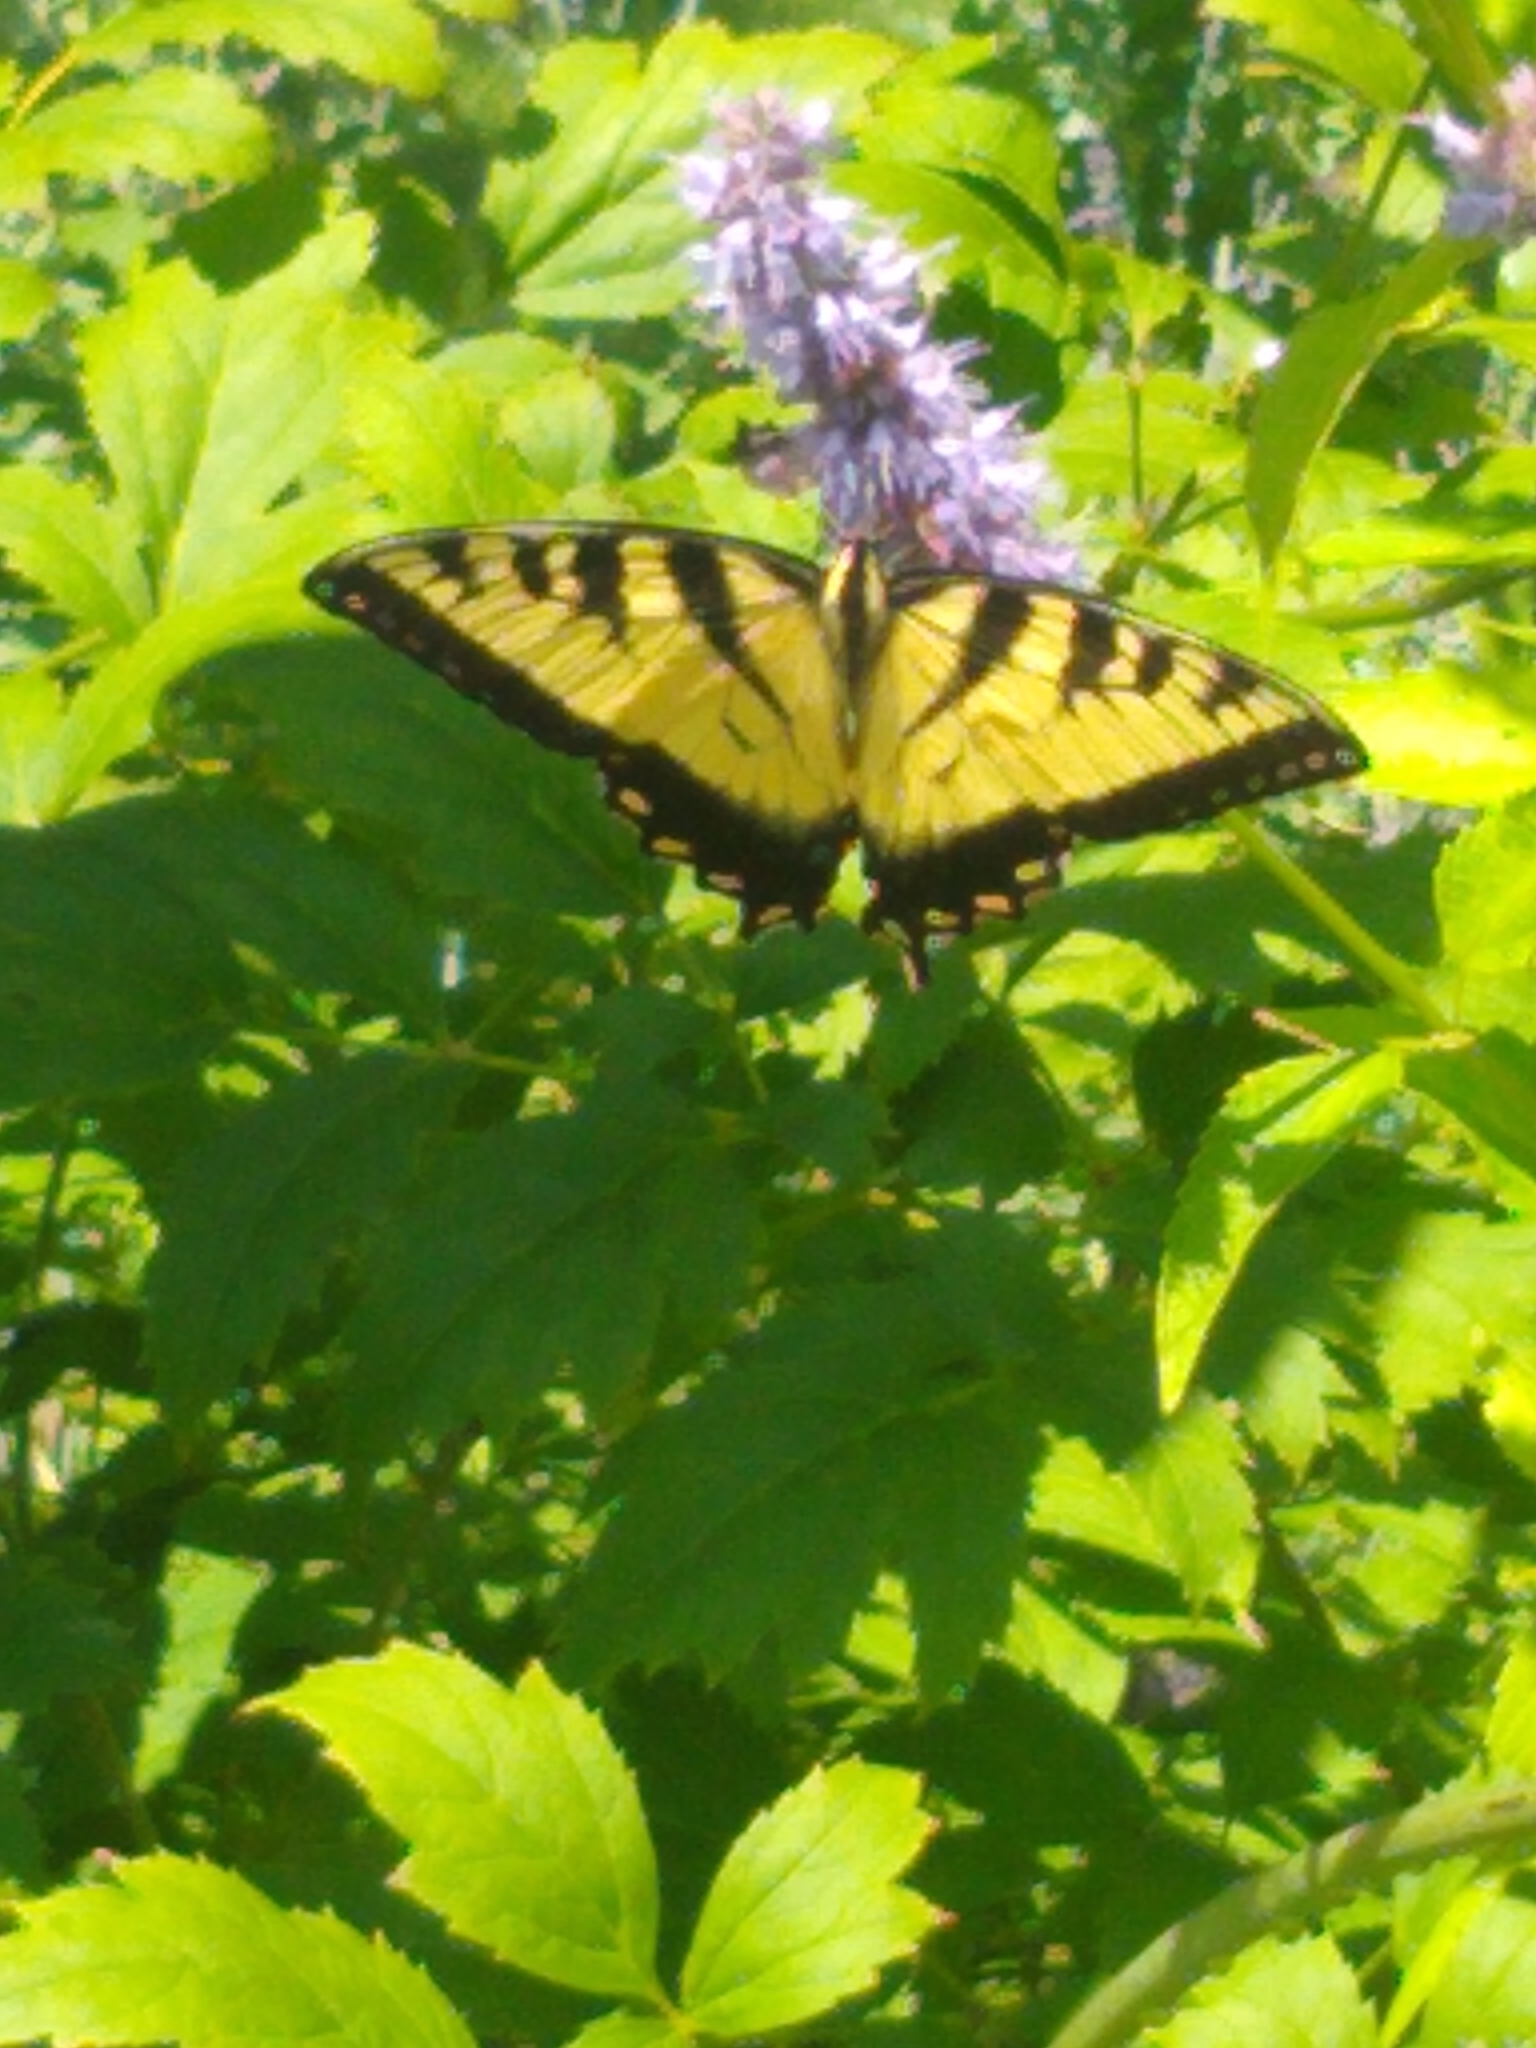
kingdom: Animalia
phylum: Arthropoda
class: Insecta
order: Lepidoptera
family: Papilionidae
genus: Papilio
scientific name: Papilio glaucus
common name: Tiger swallowtail
